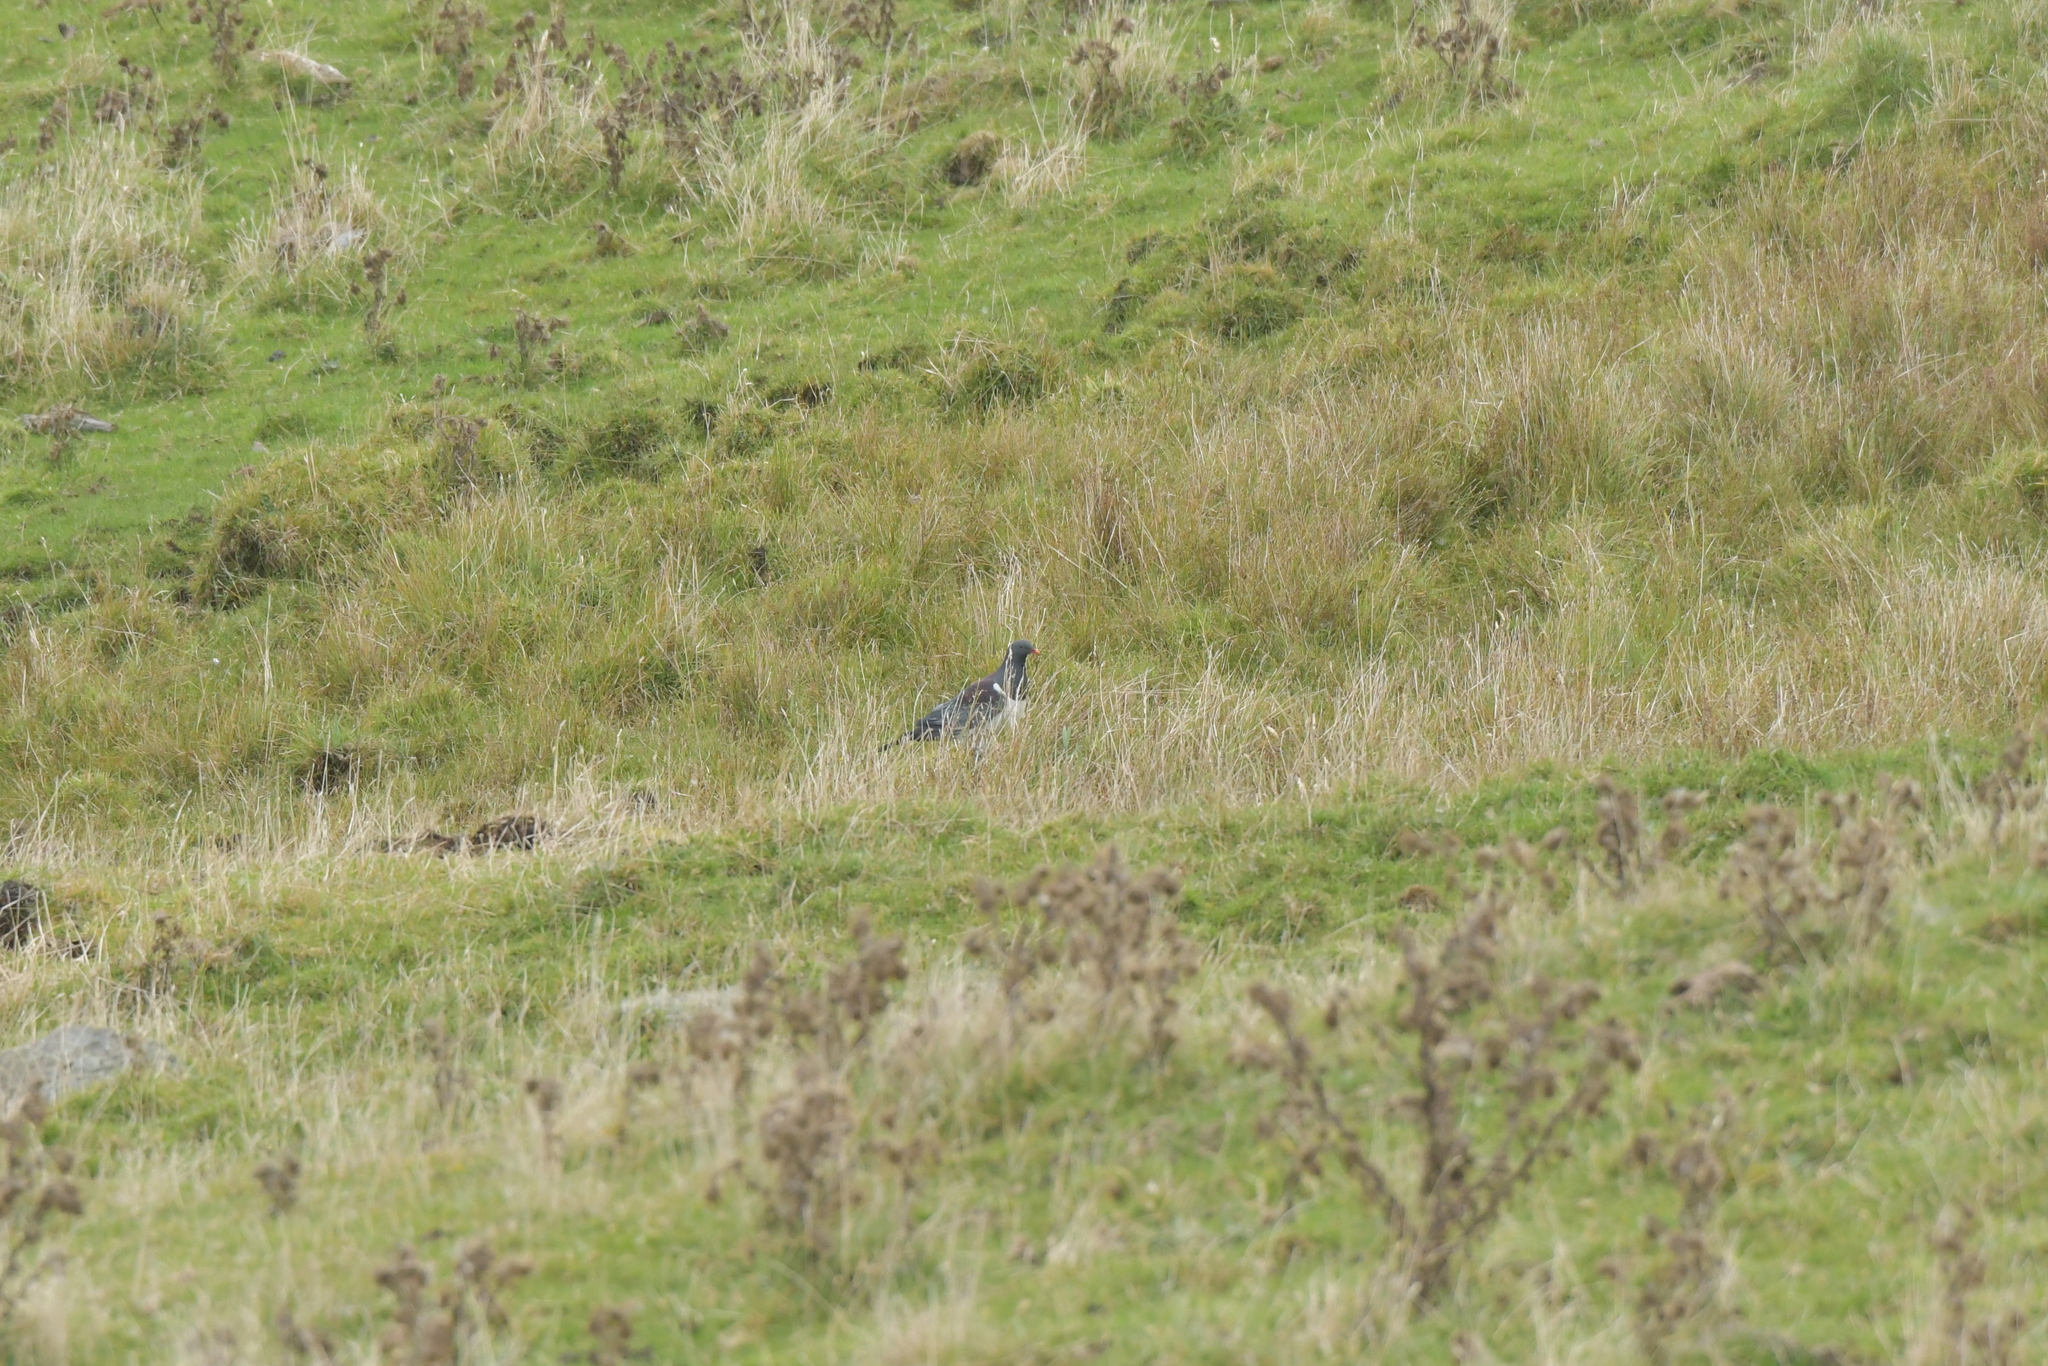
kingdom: Animalia
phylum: Chordata
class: Aves
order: Columbiformes
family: Columbidae
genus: Hemiphaga
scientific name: Hemiphaga chathamensis
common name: Chatham pigeon
